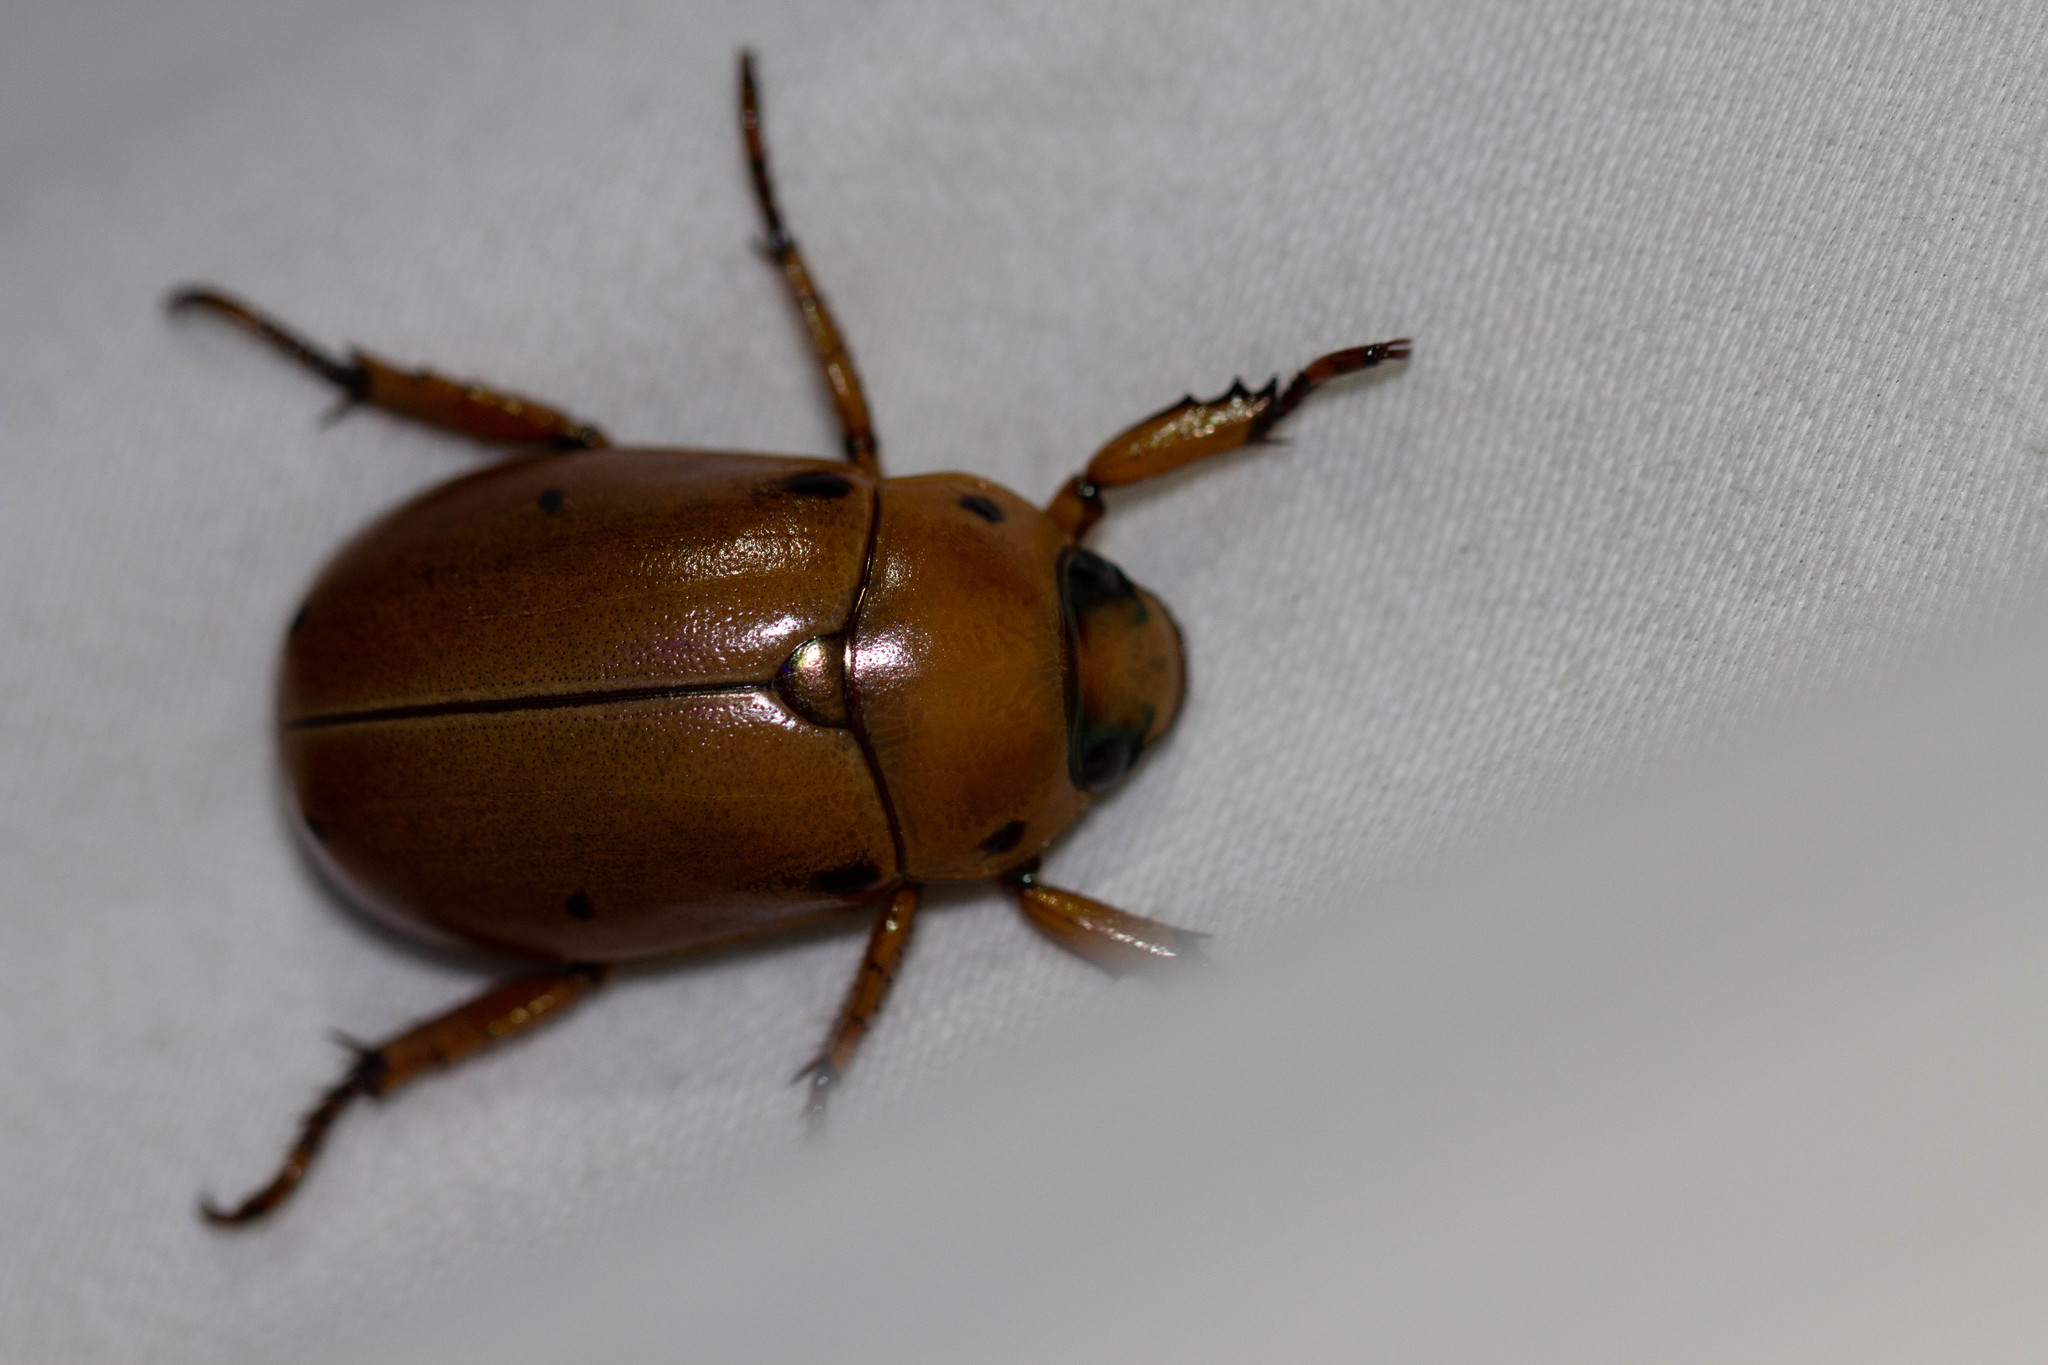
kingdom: Animalia
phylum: Arthropoda
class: Insecta
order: Coleoptera
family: Scarabaeidae
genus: Pelidnota
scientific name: Pelidnota punctata
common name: Grapevine beetle
